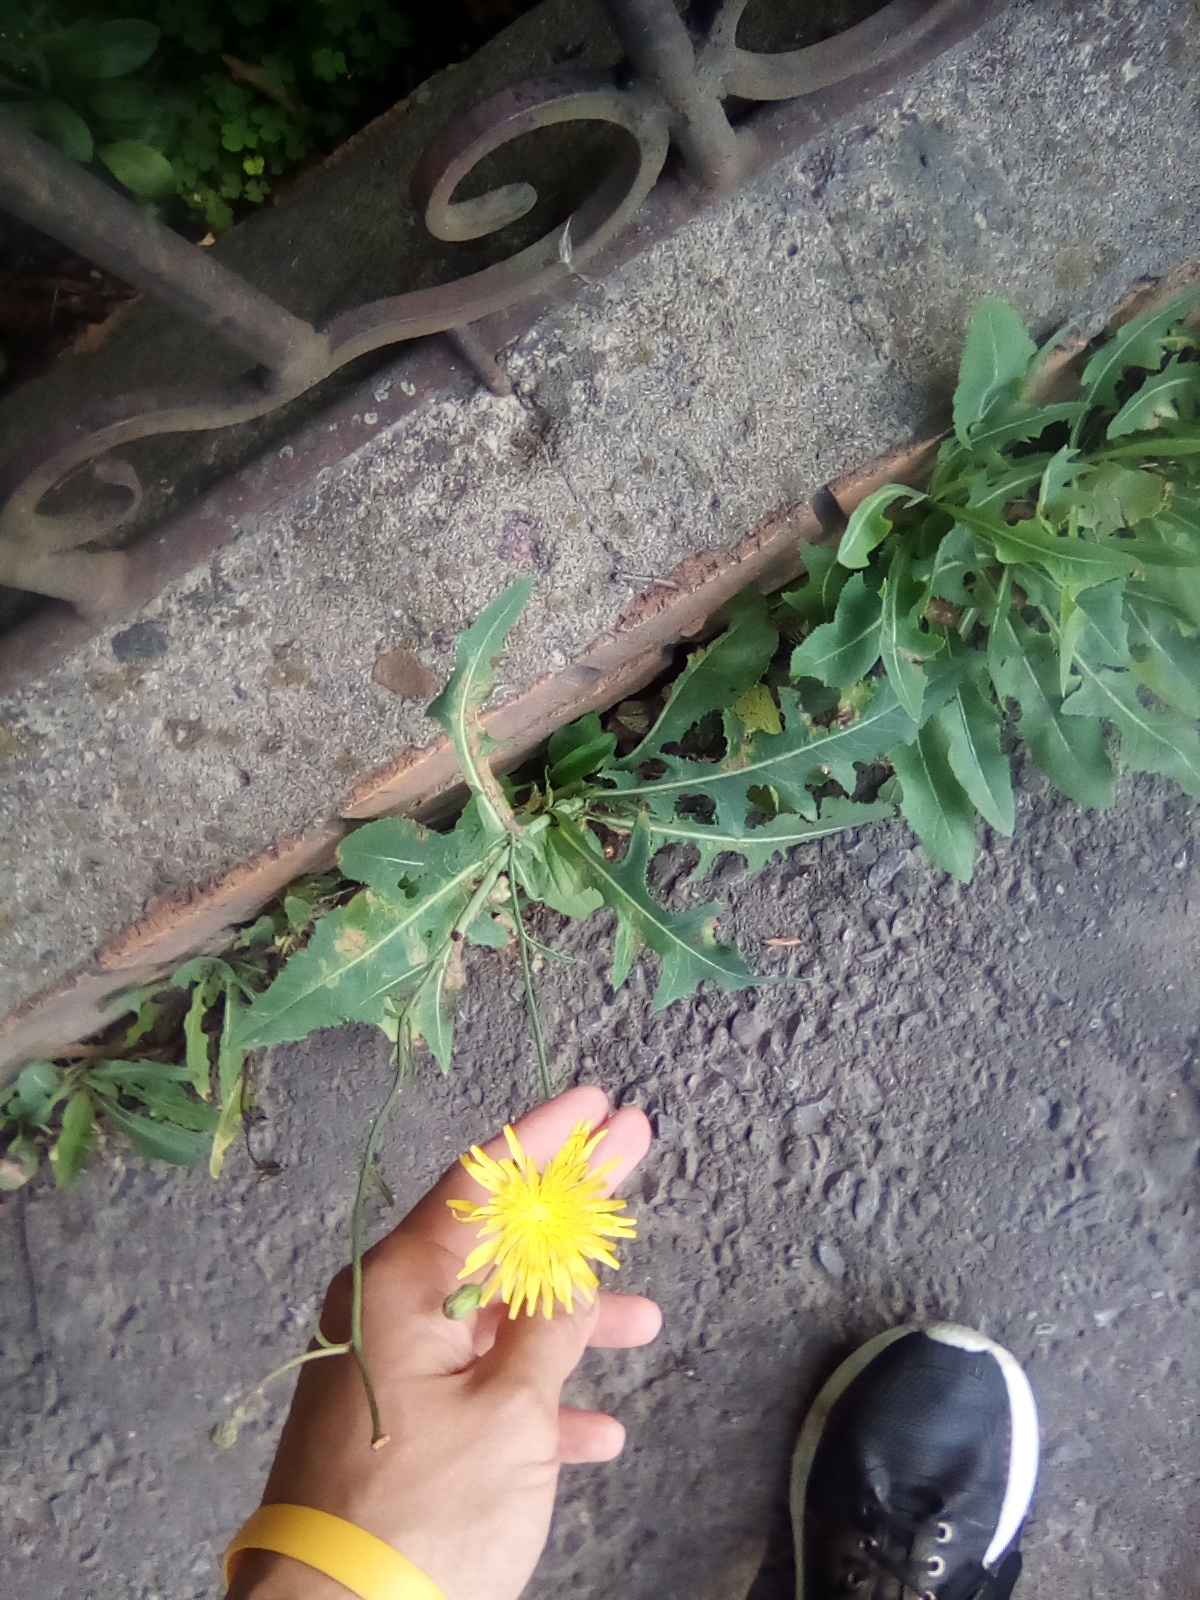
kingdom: Plantae
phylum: Tracheophyta
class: Magnoliopsida
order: Asterales
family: Asteraceae
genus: Sonchus
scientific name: Sonchus arvensis
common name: Perennial sow-thistle
